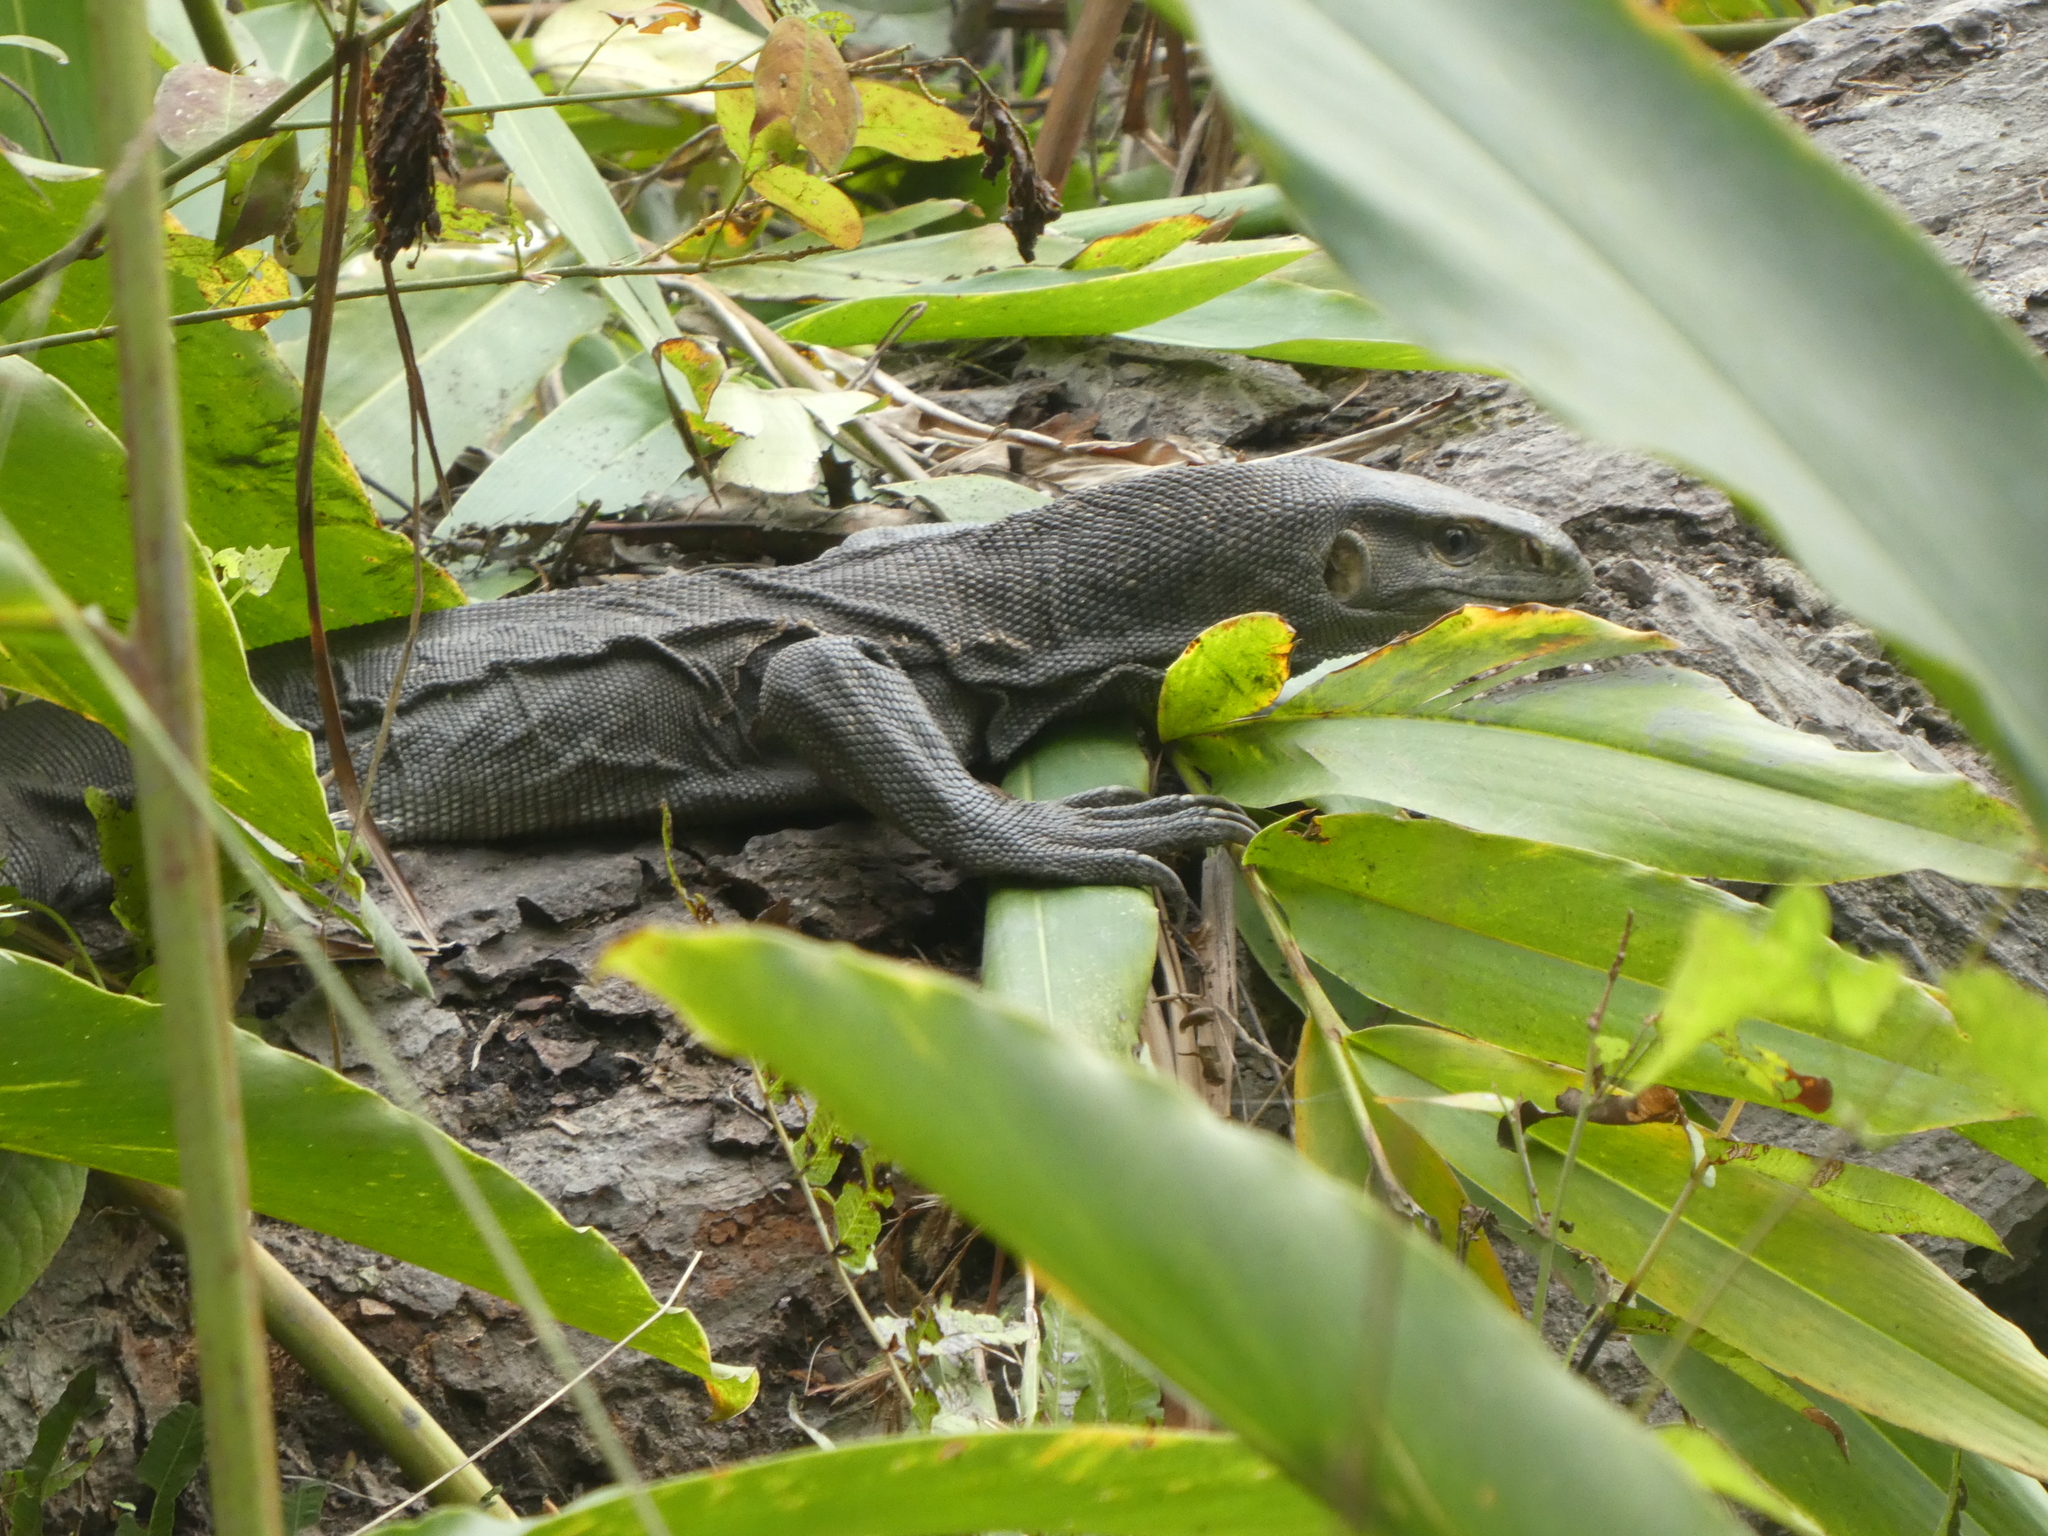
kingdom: Animalia
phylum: Chordata
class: Squamata
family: Varanidae
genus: Varanus
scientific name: Varanus bengalensis
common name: Bengal monitor
